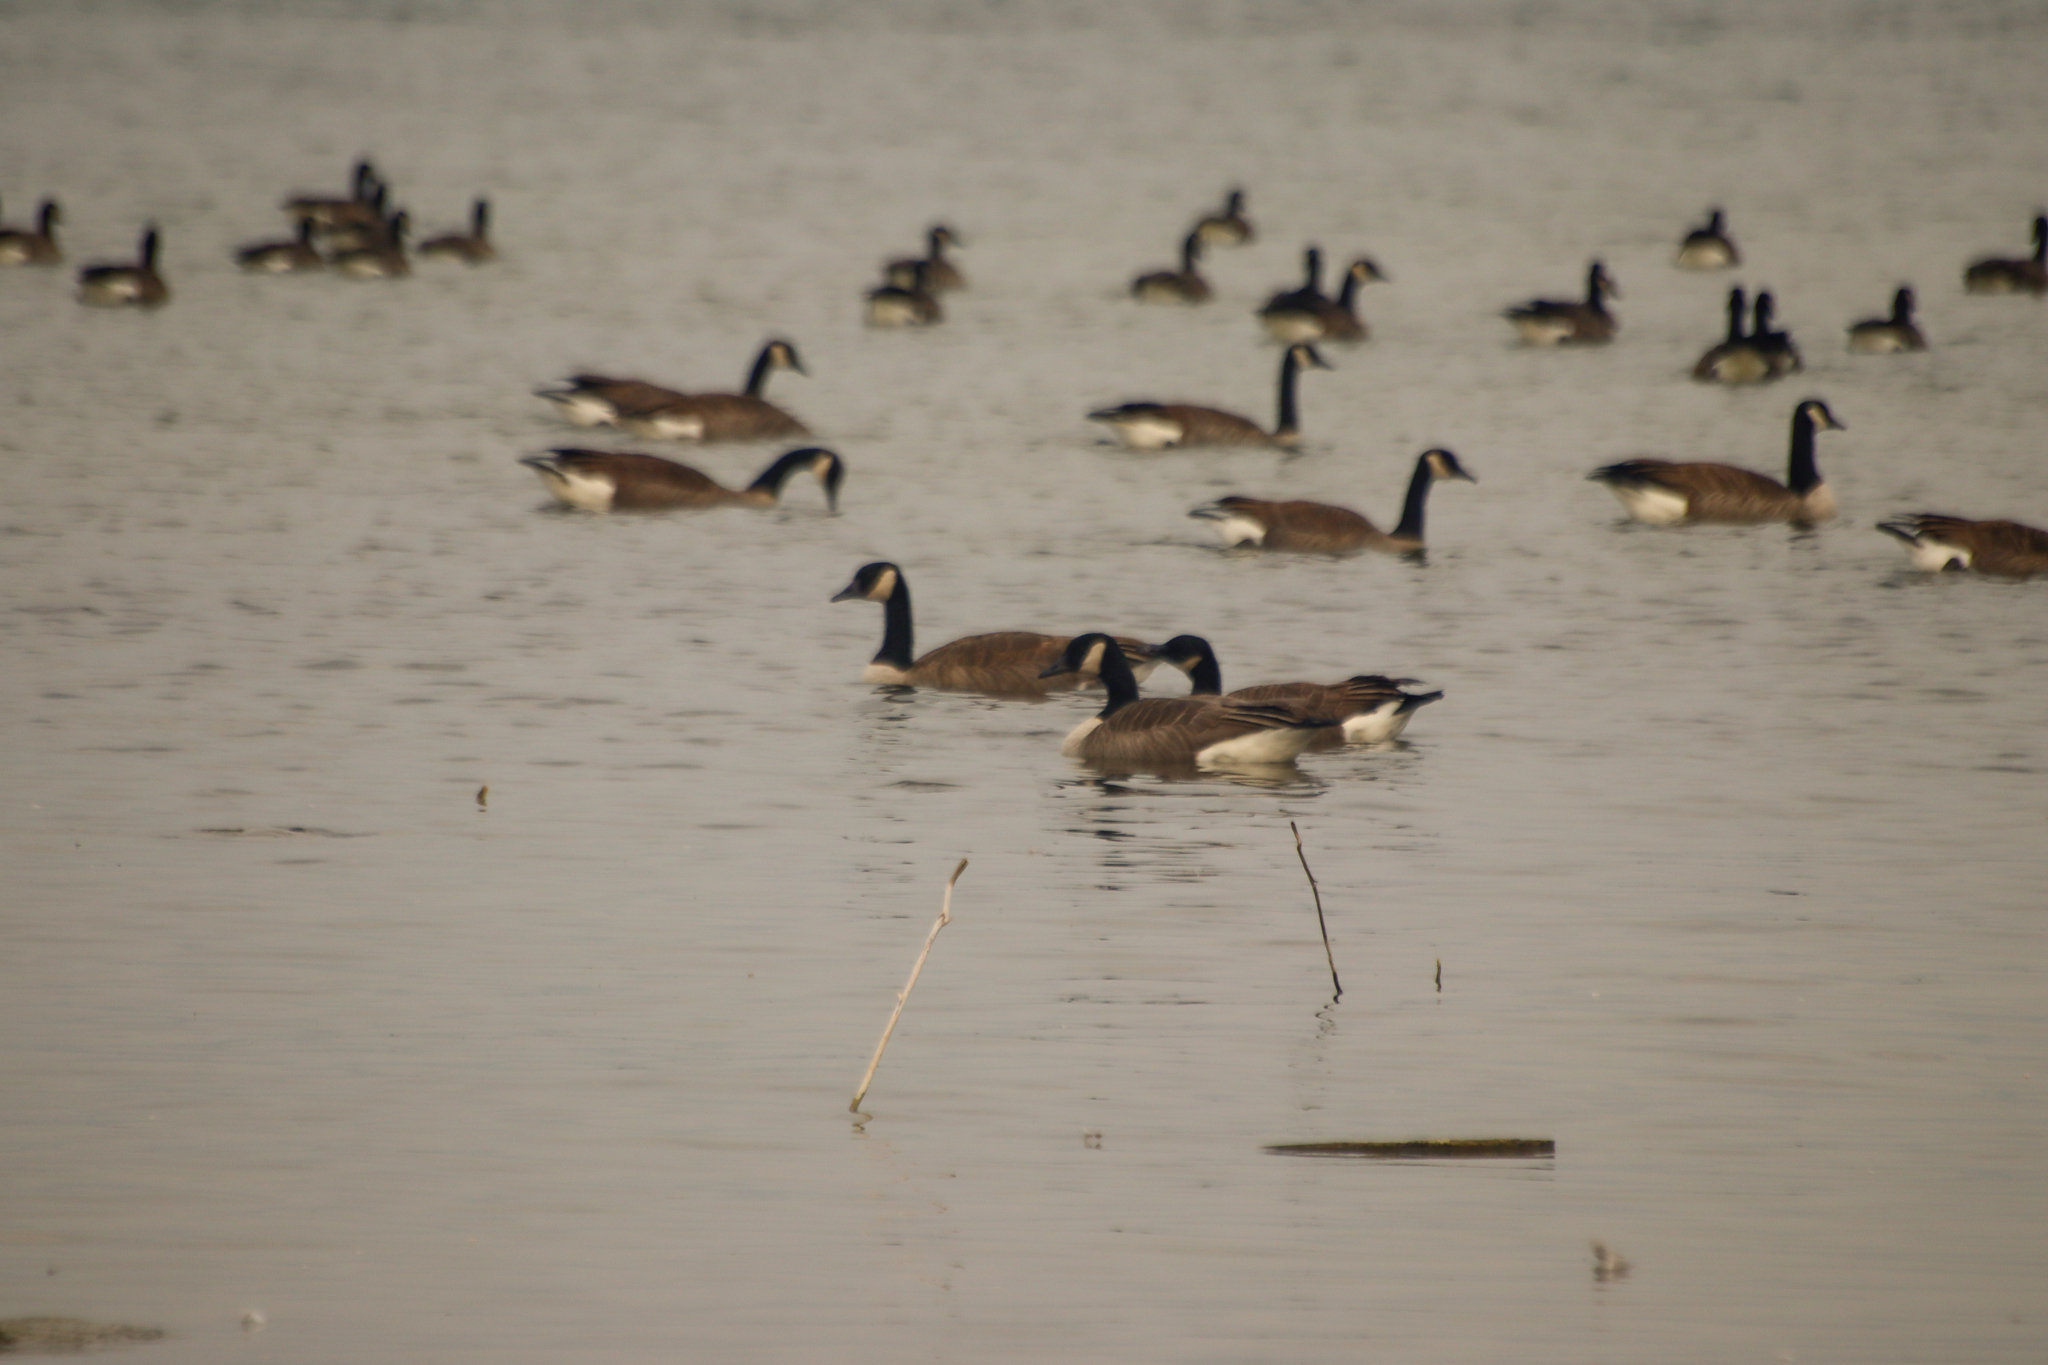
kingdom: Animalia
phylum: Chordata
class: Aves
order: Anseriformes
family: Anatidae
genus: Branta
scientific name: Branta canadensis
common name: Canada goose
